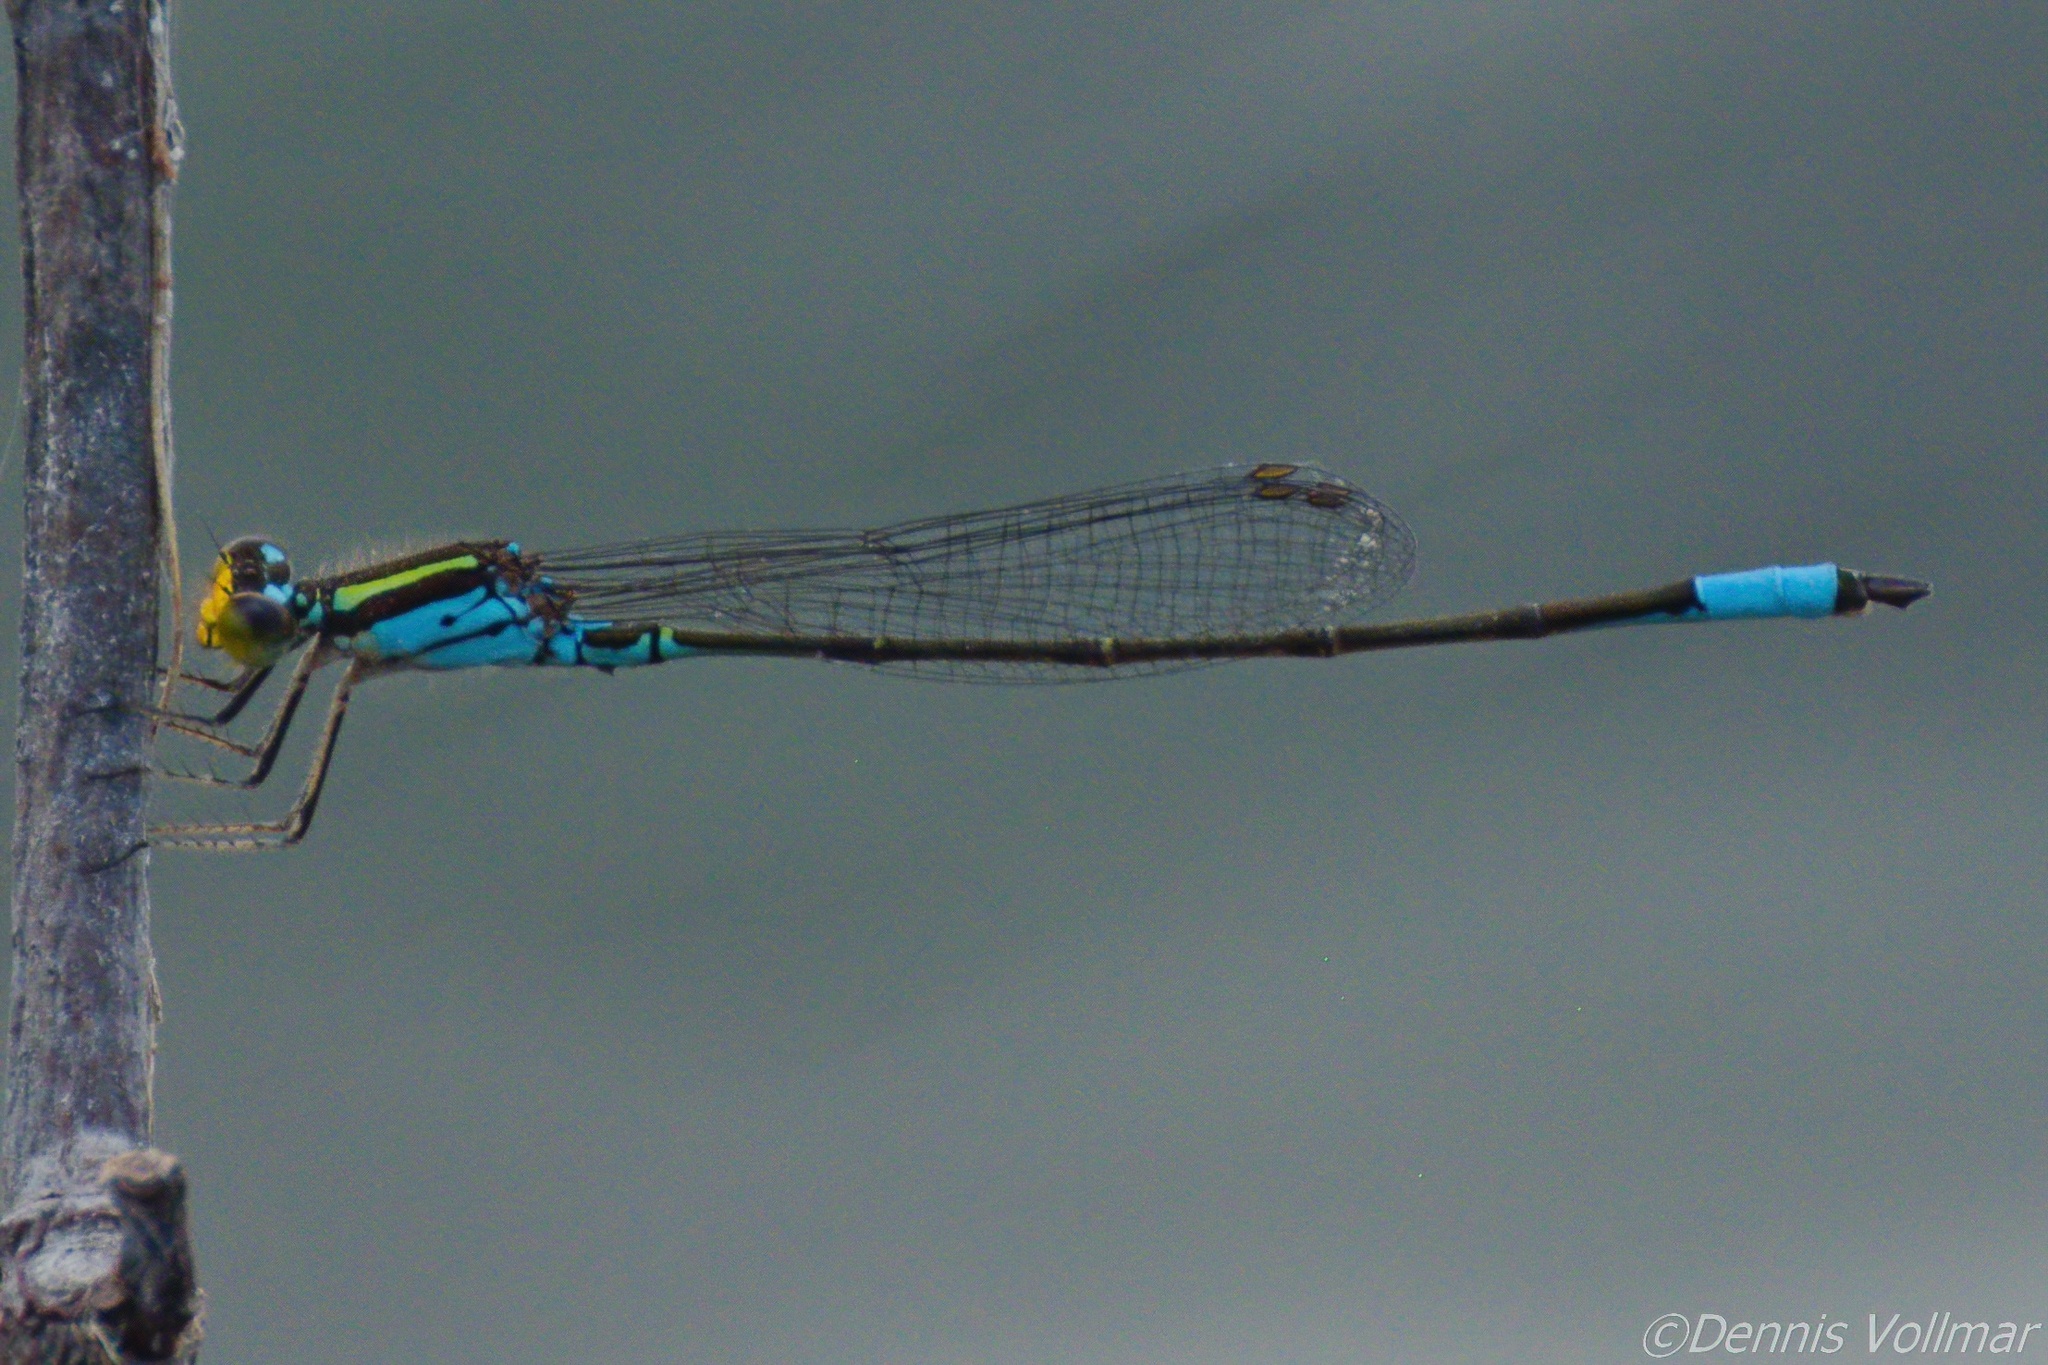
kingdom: Animalia
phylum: Arthropoda
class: Insecta
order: Odonata
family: Coenagrionidae
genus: Neoerythromma
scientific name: Neoerythromma cultellatum
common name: Caribbean yellowface
